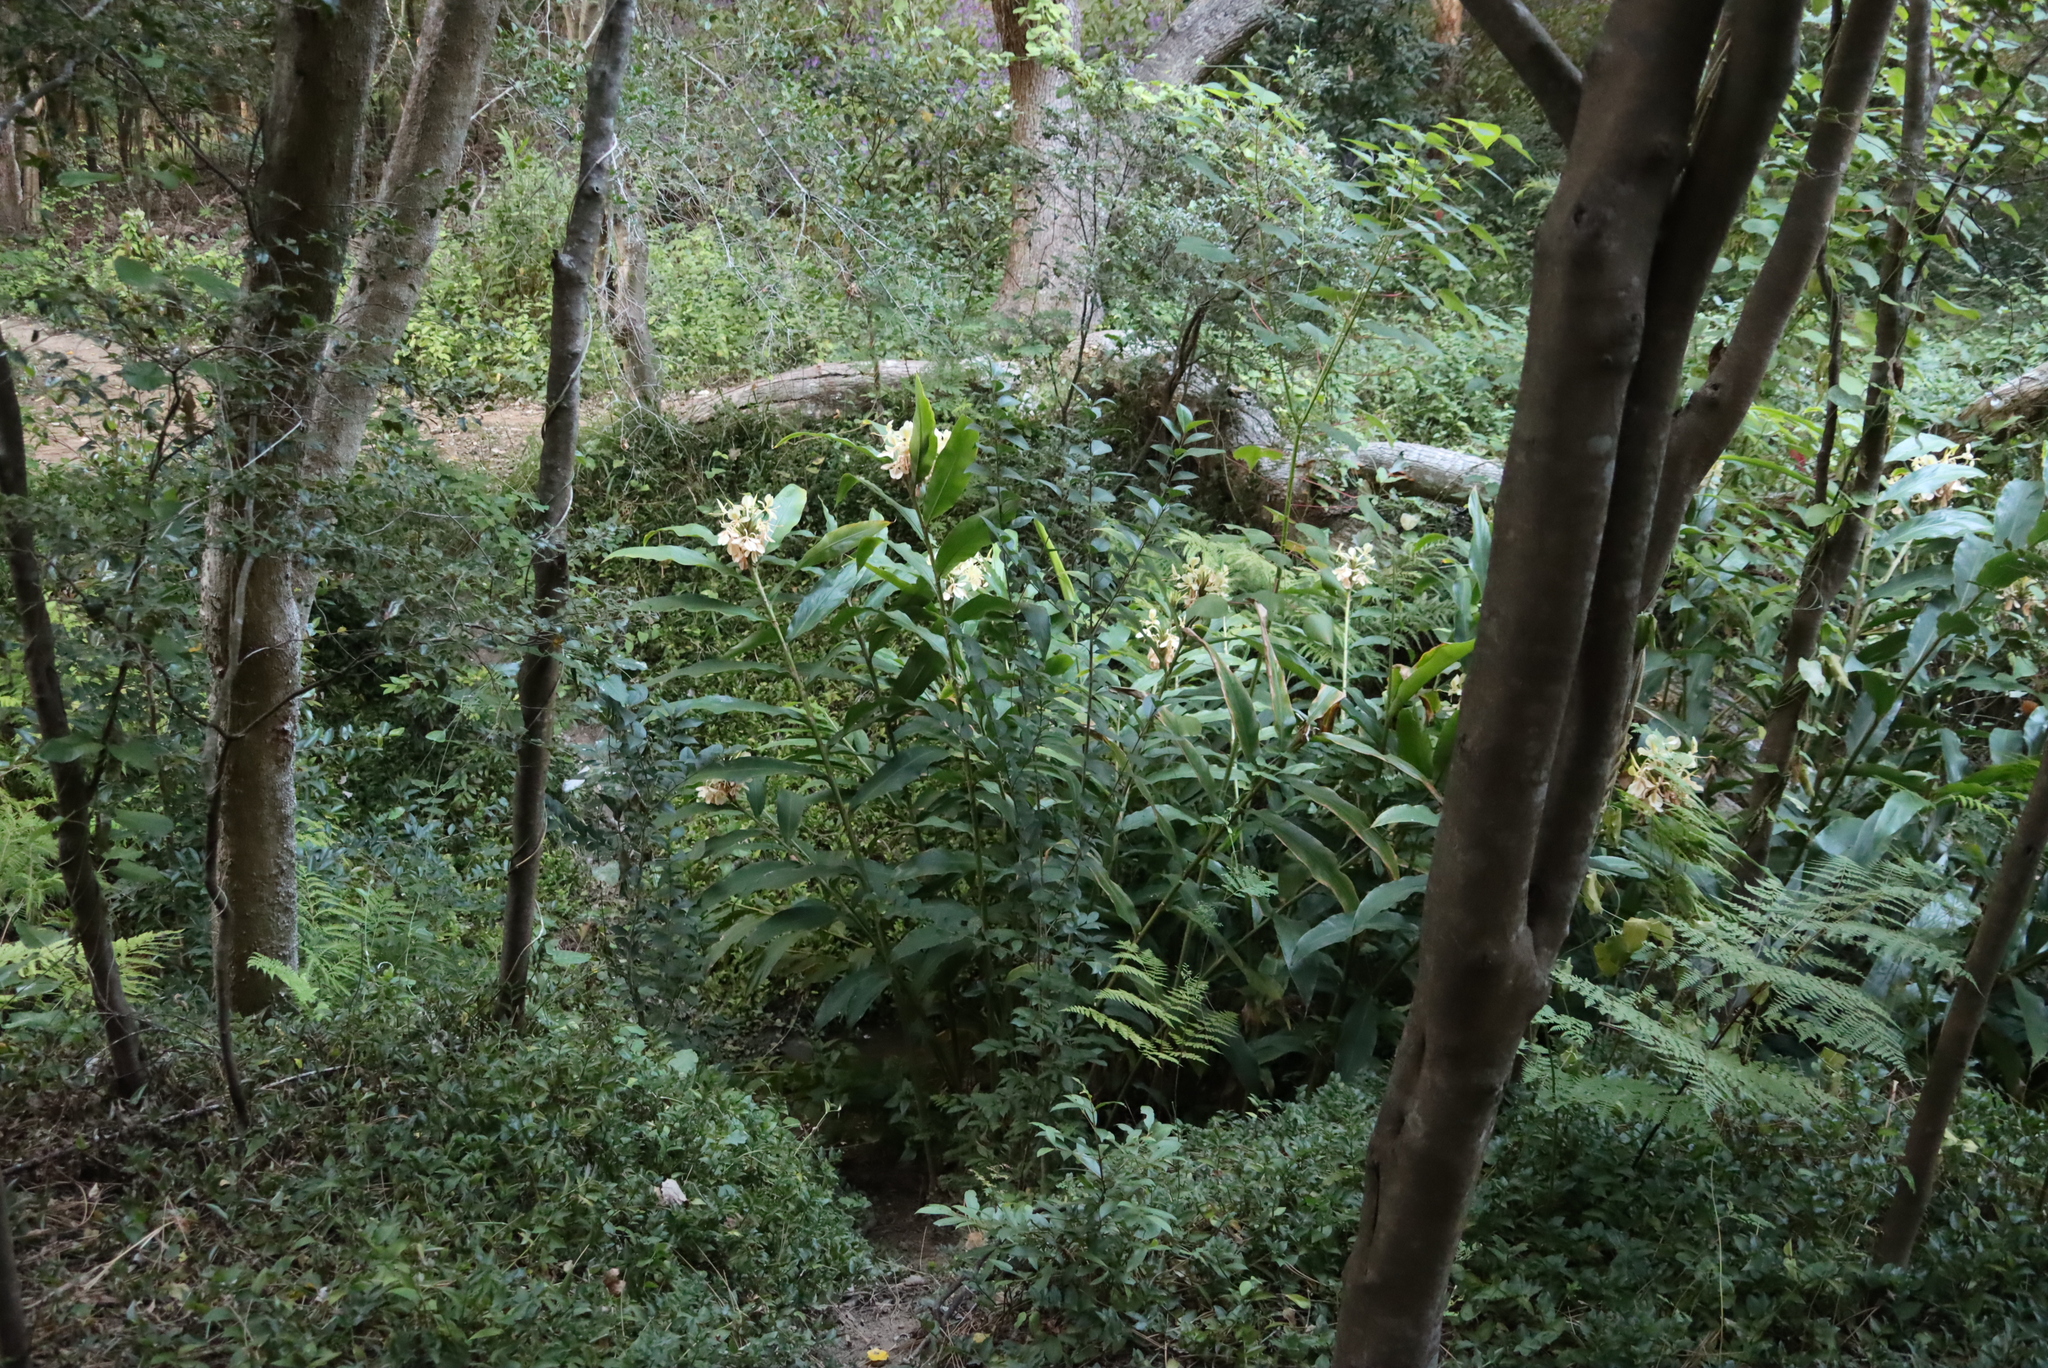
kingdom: Plantae
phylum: Tracheophyta
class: Liliopsida
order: Zingiberales
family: Zingiberaceae
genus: Hedychium
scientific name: Hedychium coronarium
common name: White garland-lily
